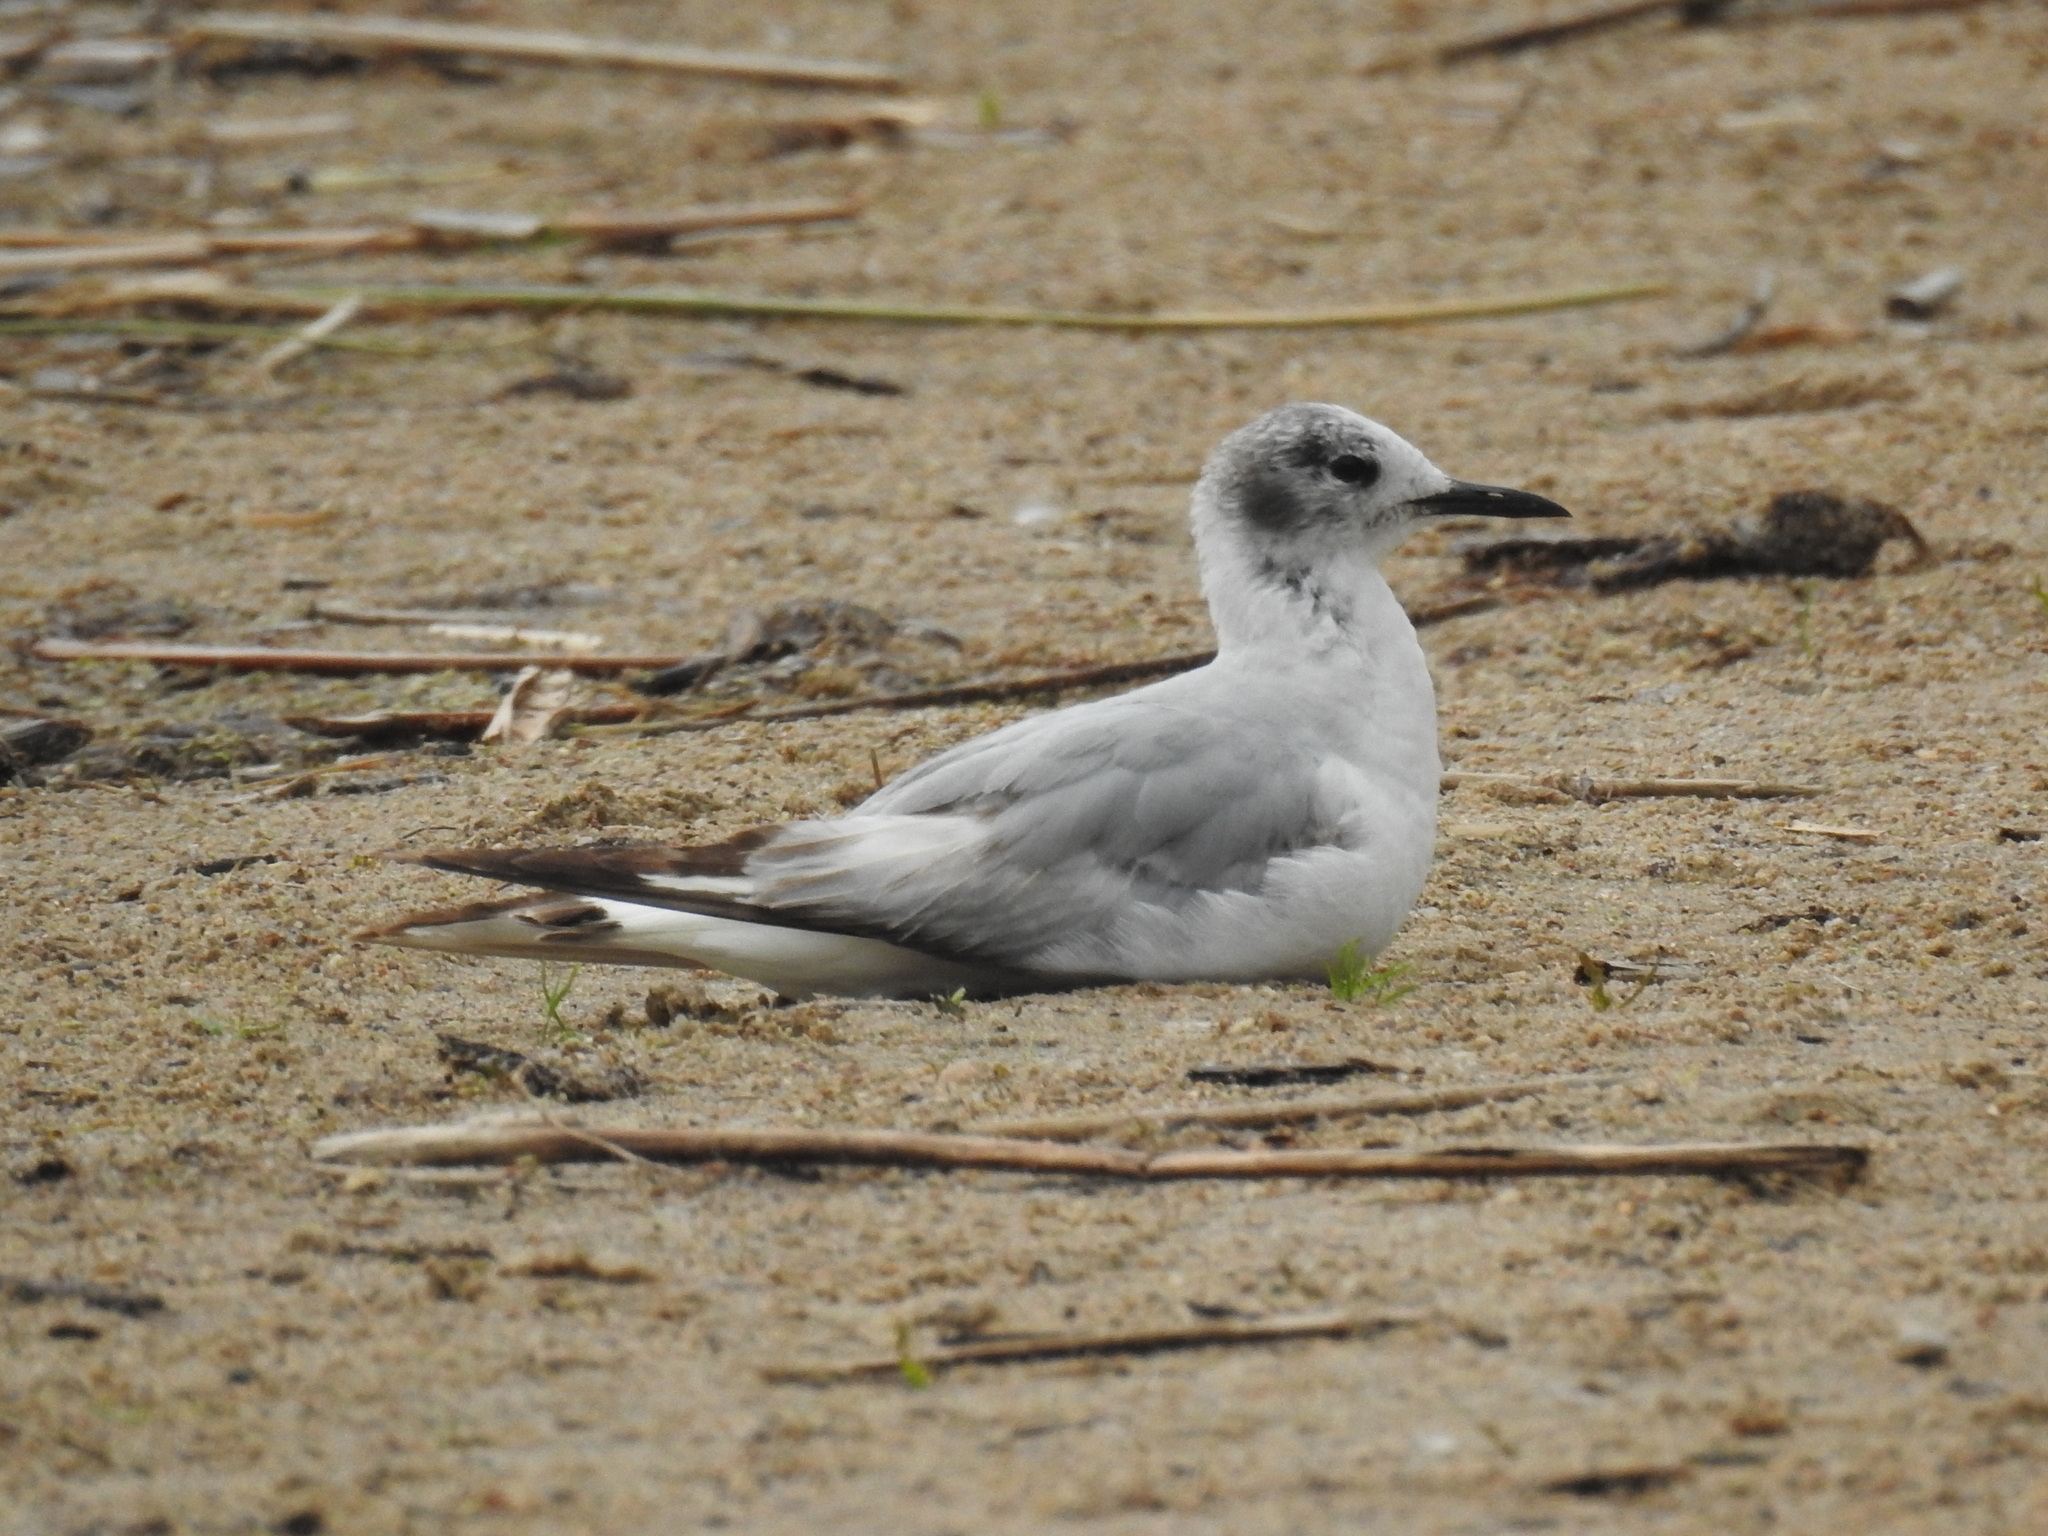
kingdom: Animalia
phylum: Chordata
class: Aves
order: Charadriiformes
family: Laridae
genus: Chroicocephalus
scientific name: Chroicocephalus philadelphia
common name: Bonaparte's gull
